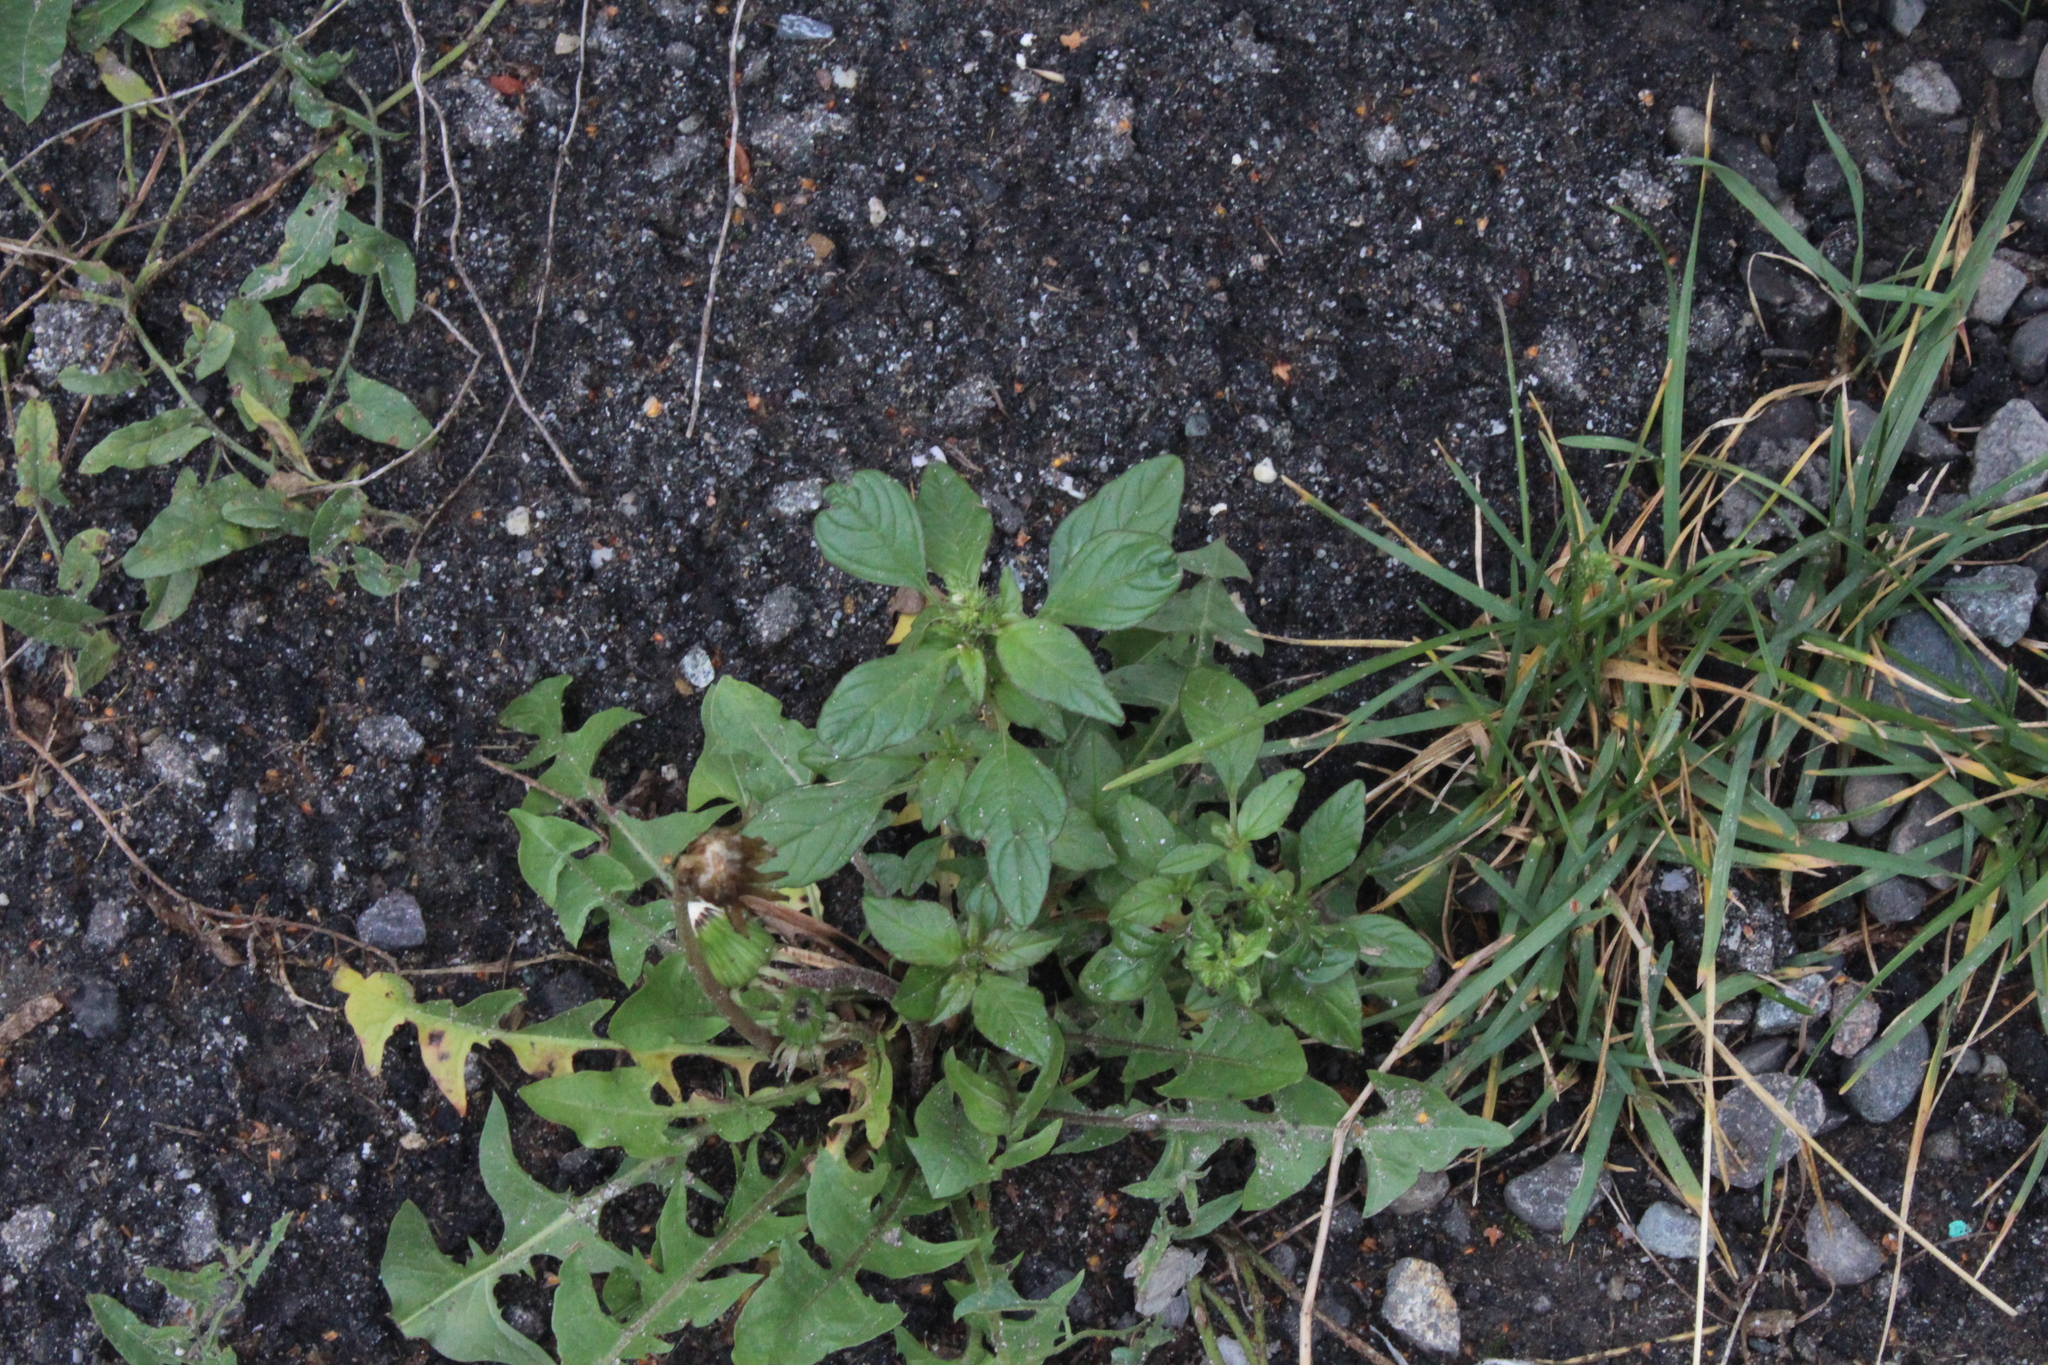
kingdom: Plantae
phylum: Tracheophyta
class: Magnoliopsida
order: Caryophyllales
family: Amaranthaceae
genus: Amaranthus
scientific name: Amaranthus retroflexus
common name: Redroot amaranth
